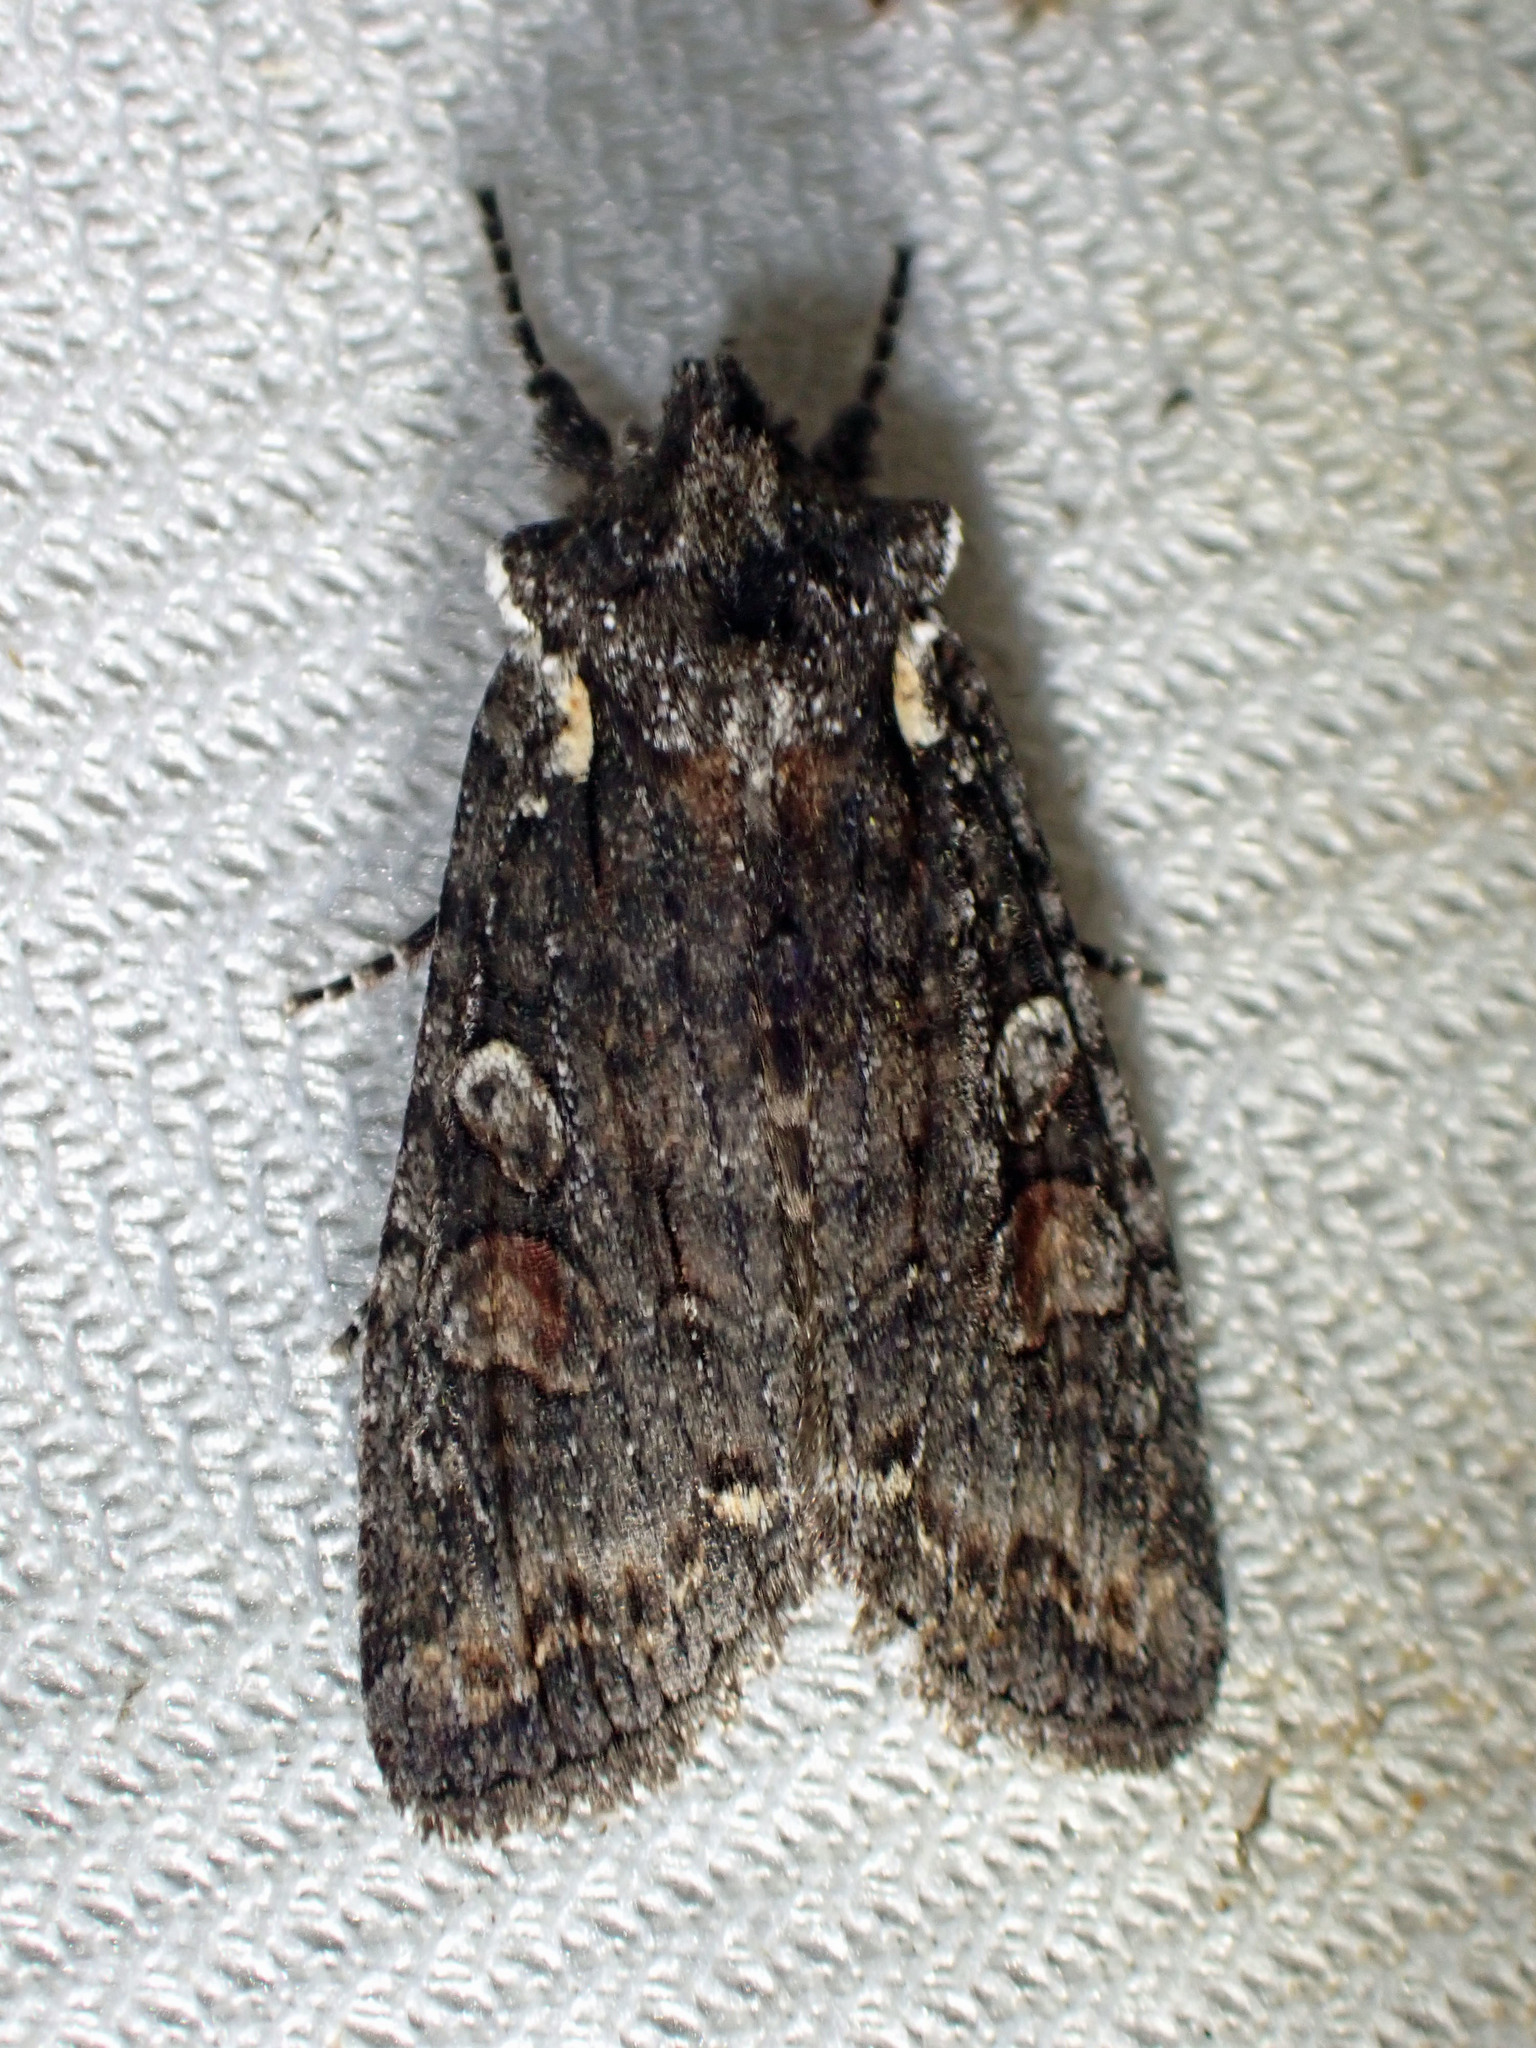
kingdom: Animalia
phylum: Arthropoda
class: Insecta
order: Lepidoptera
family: Noctuidae
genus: Lithophane
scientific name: Lithophane pexata
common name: Plush-naped pinion moth
